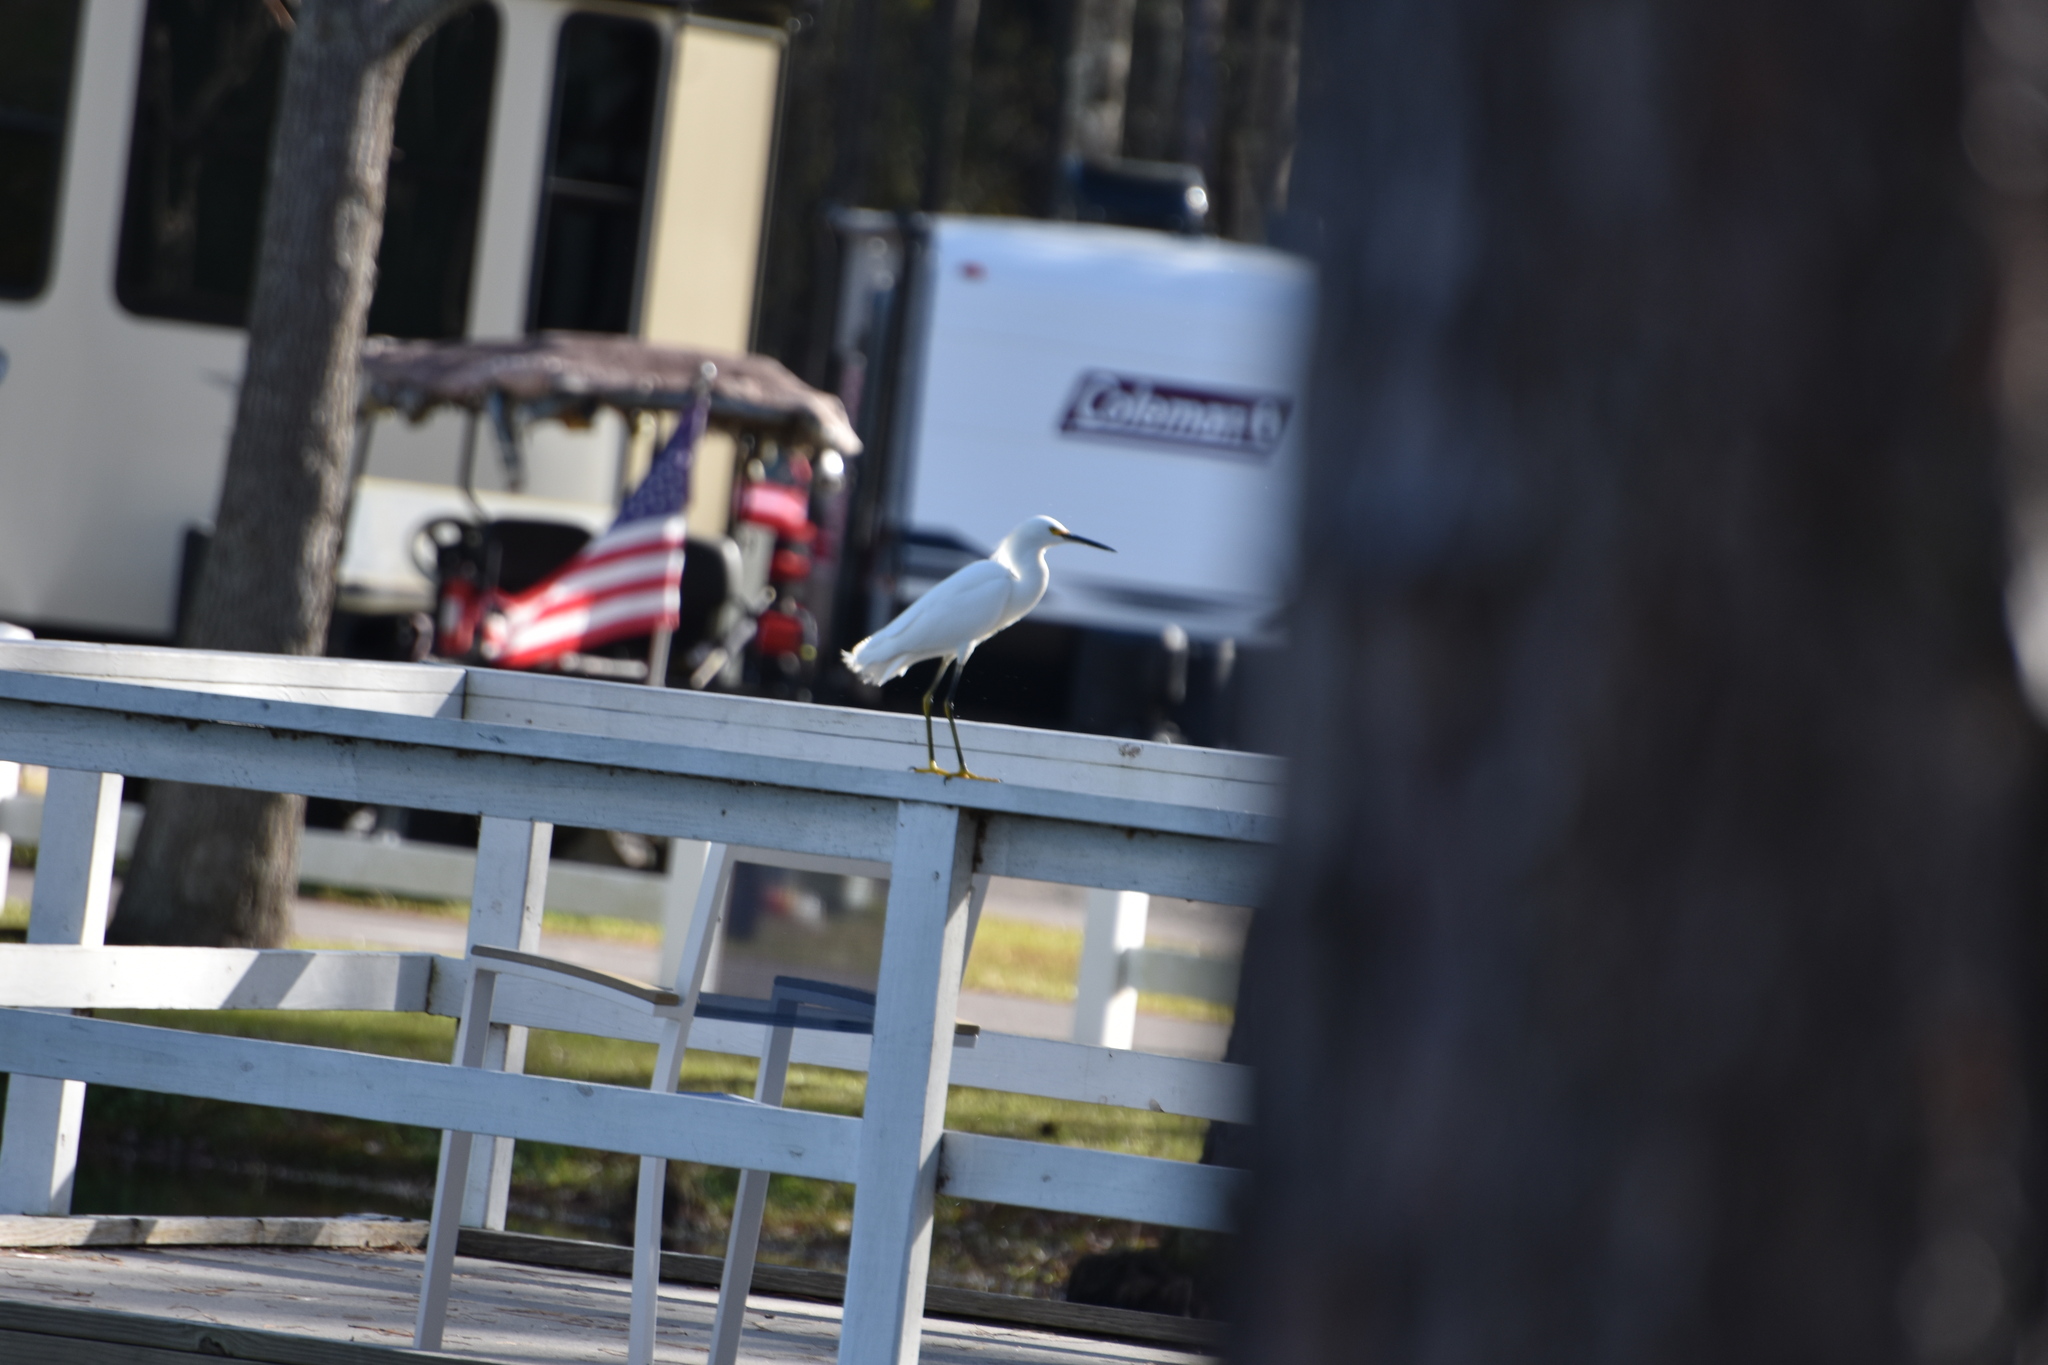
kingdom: Animalia
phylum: Chordata
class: Aves
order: Pelecaniformes
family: Ardeidae
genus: Egretta
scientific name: Egretta thula
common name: Snowy egret
